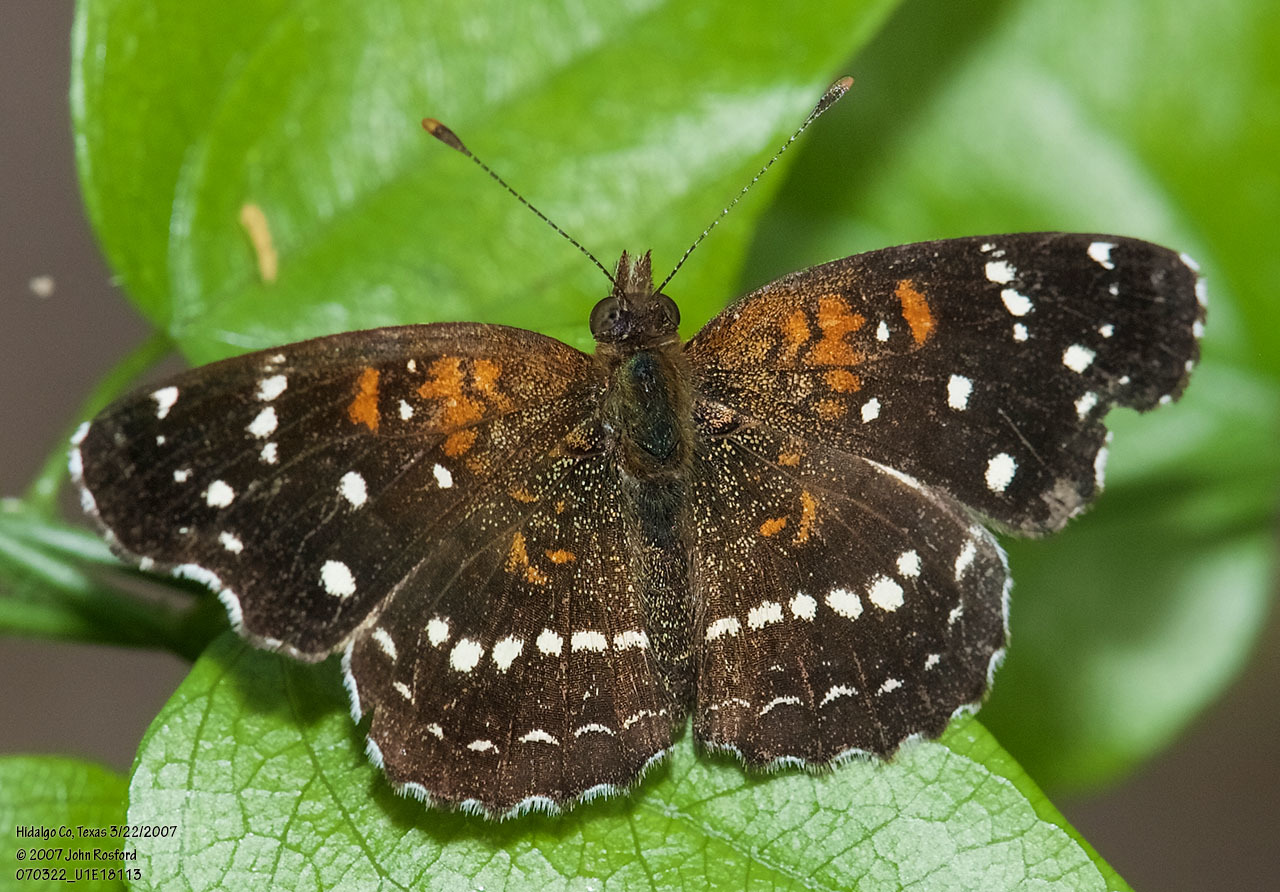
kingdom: Animalia
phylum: Arthropoda
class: Insecta
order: Lepidoptera
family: Nymphalidae
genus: Anthanassa
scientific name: Anthanassa texana
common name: Texan crescent
